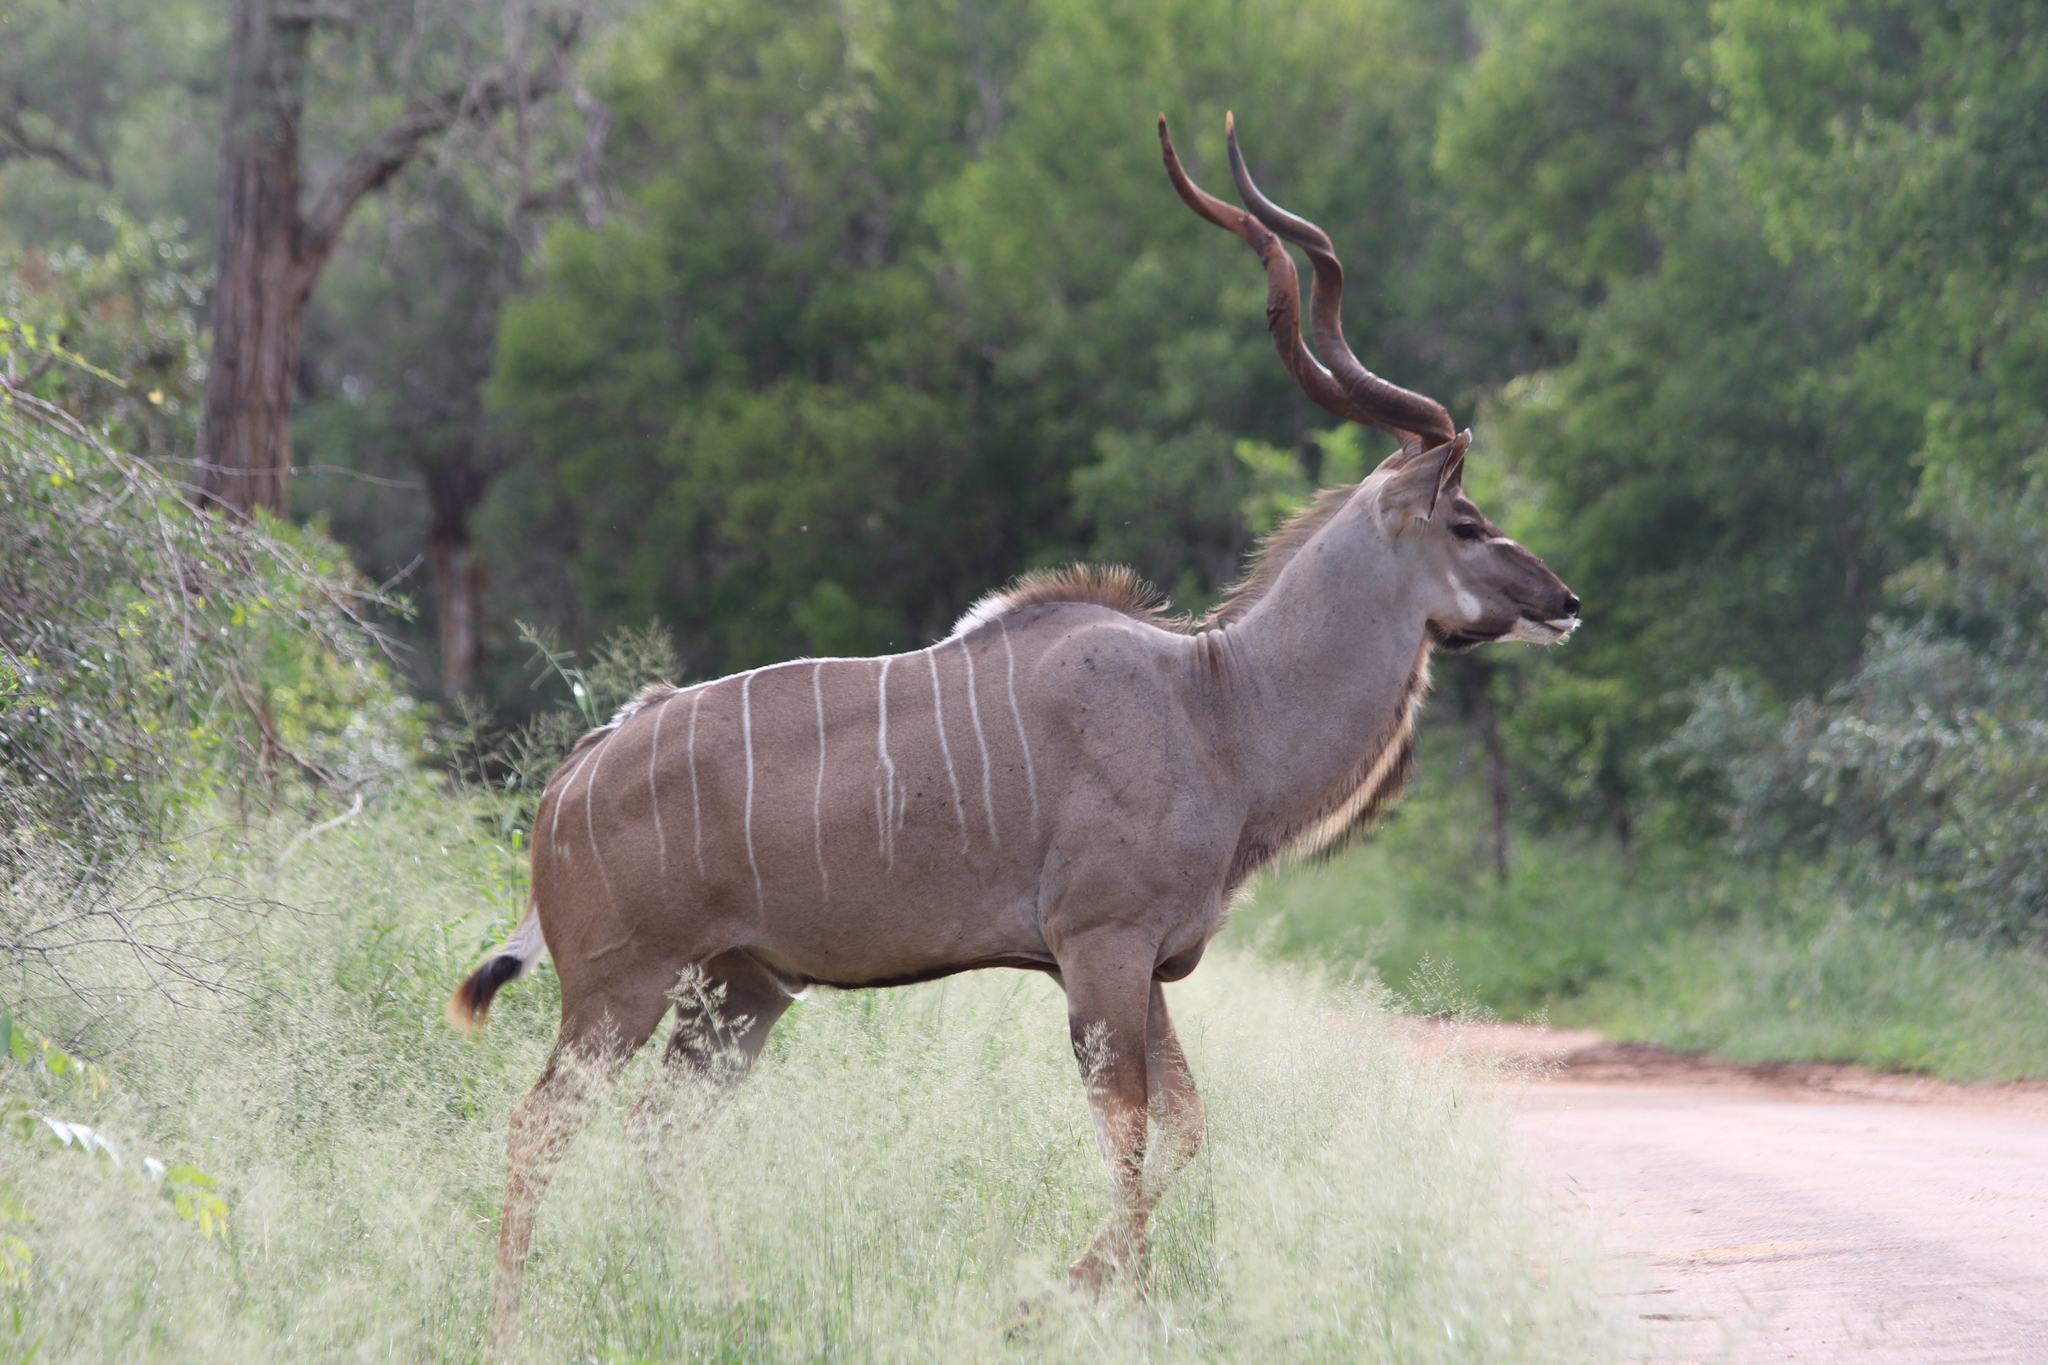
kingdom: Animalia
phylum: Chordata
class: Mammalia
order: Artiodactyla
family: Bovidae
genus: Tragelaphus
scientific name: Tragelaphus strepsiceros
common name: Greater kudu
